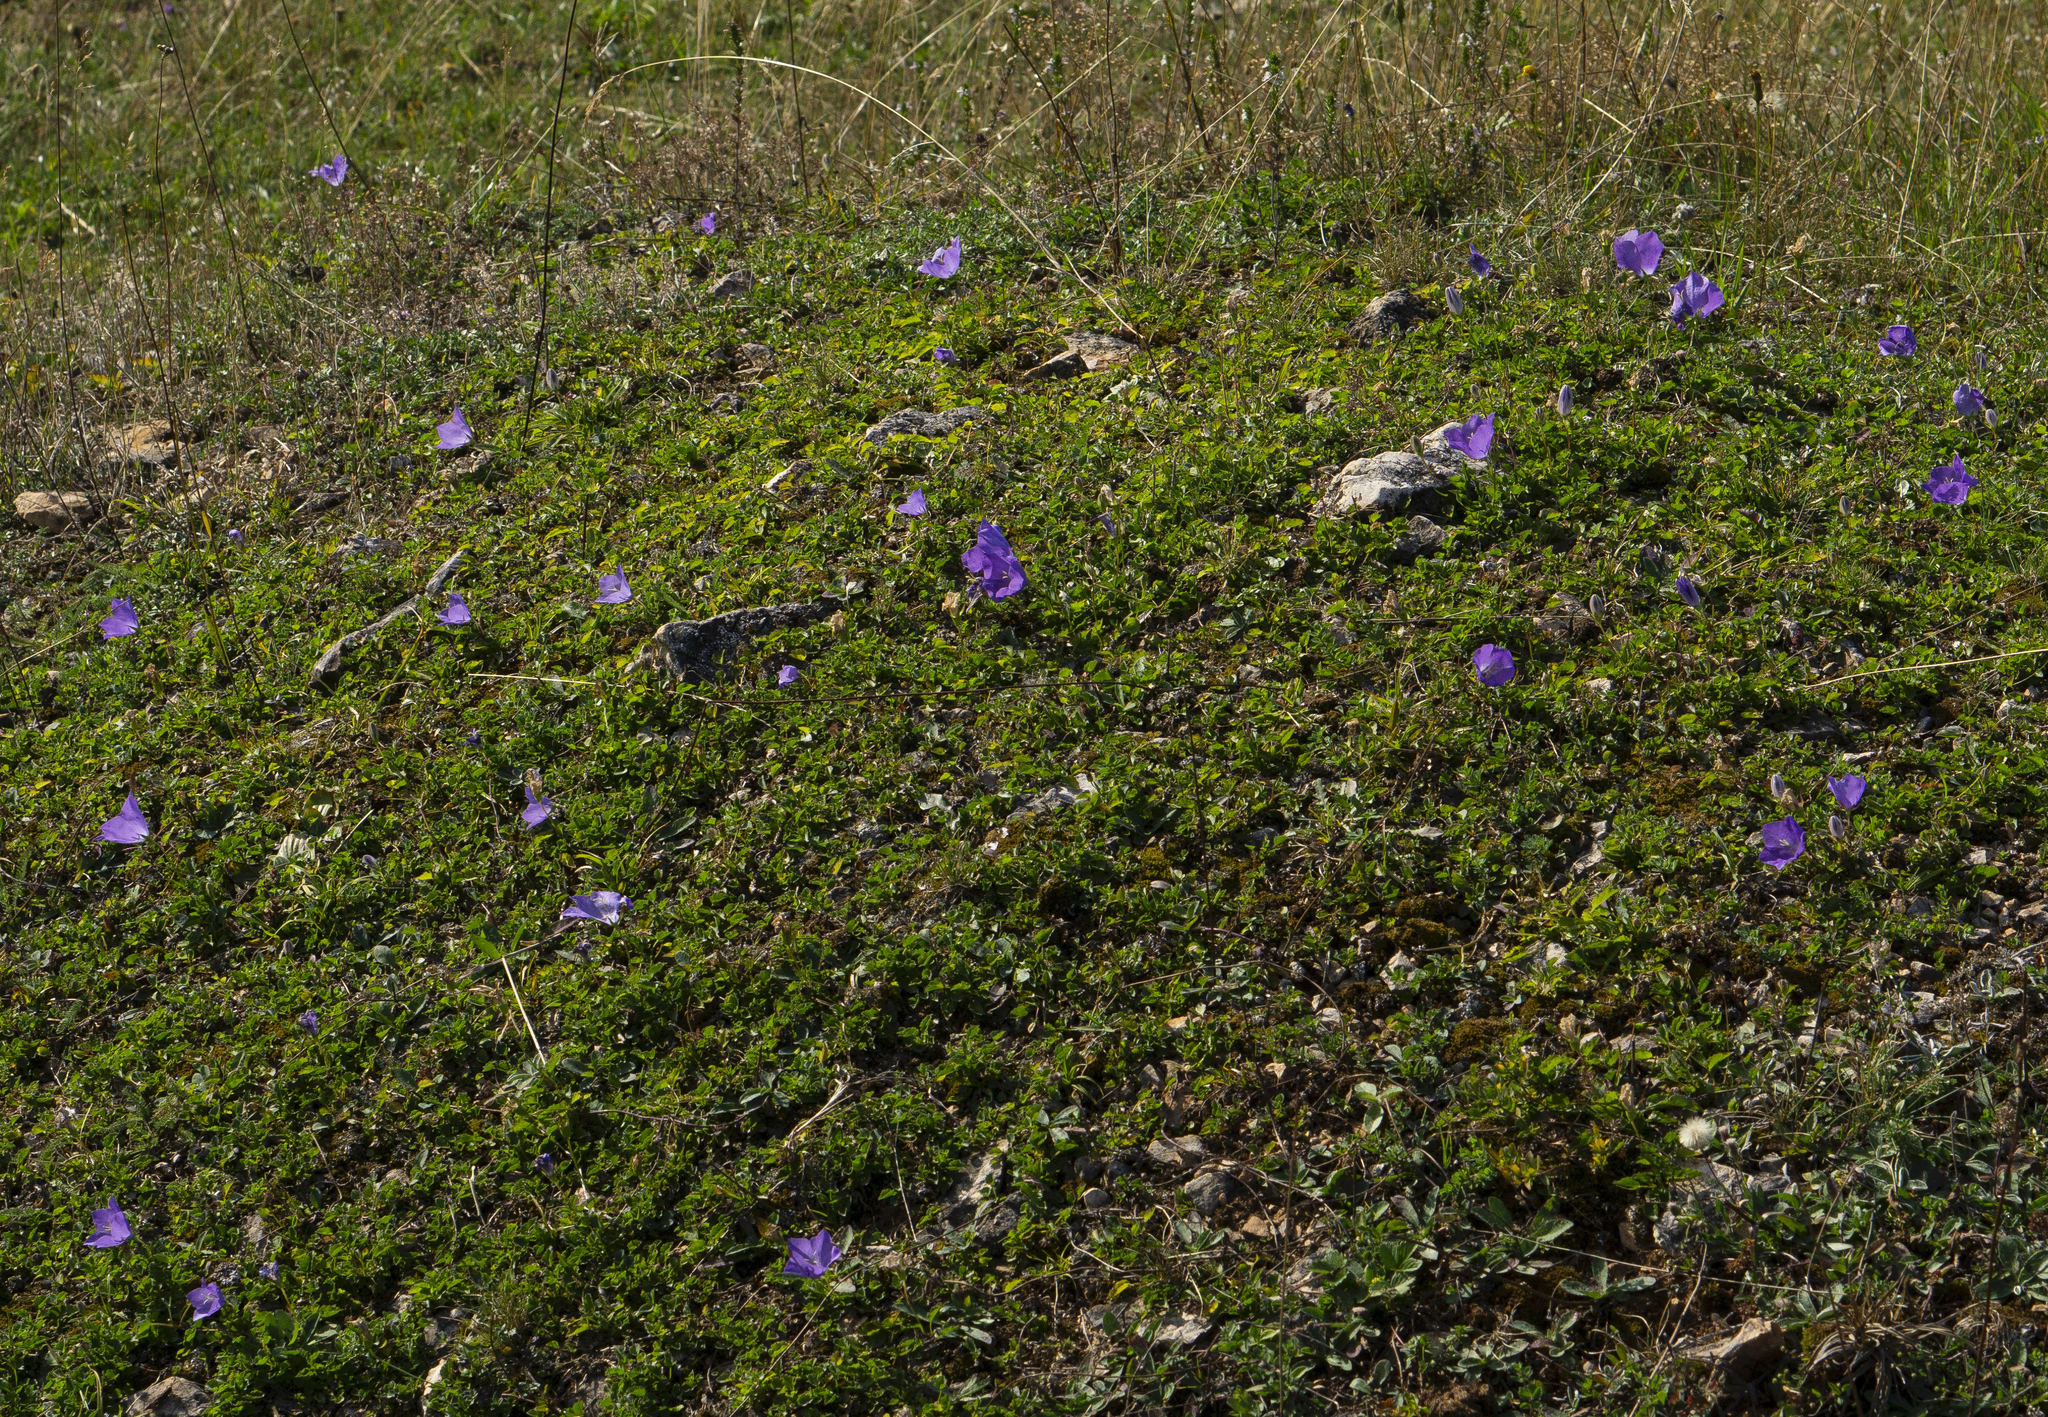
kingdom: Plantae
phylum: Tracheophyta
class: Magnoliopsida
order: Asterales
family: Campanulaceae
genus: Campanula
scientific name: Campanula carpatica
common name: Tussock bellflower
